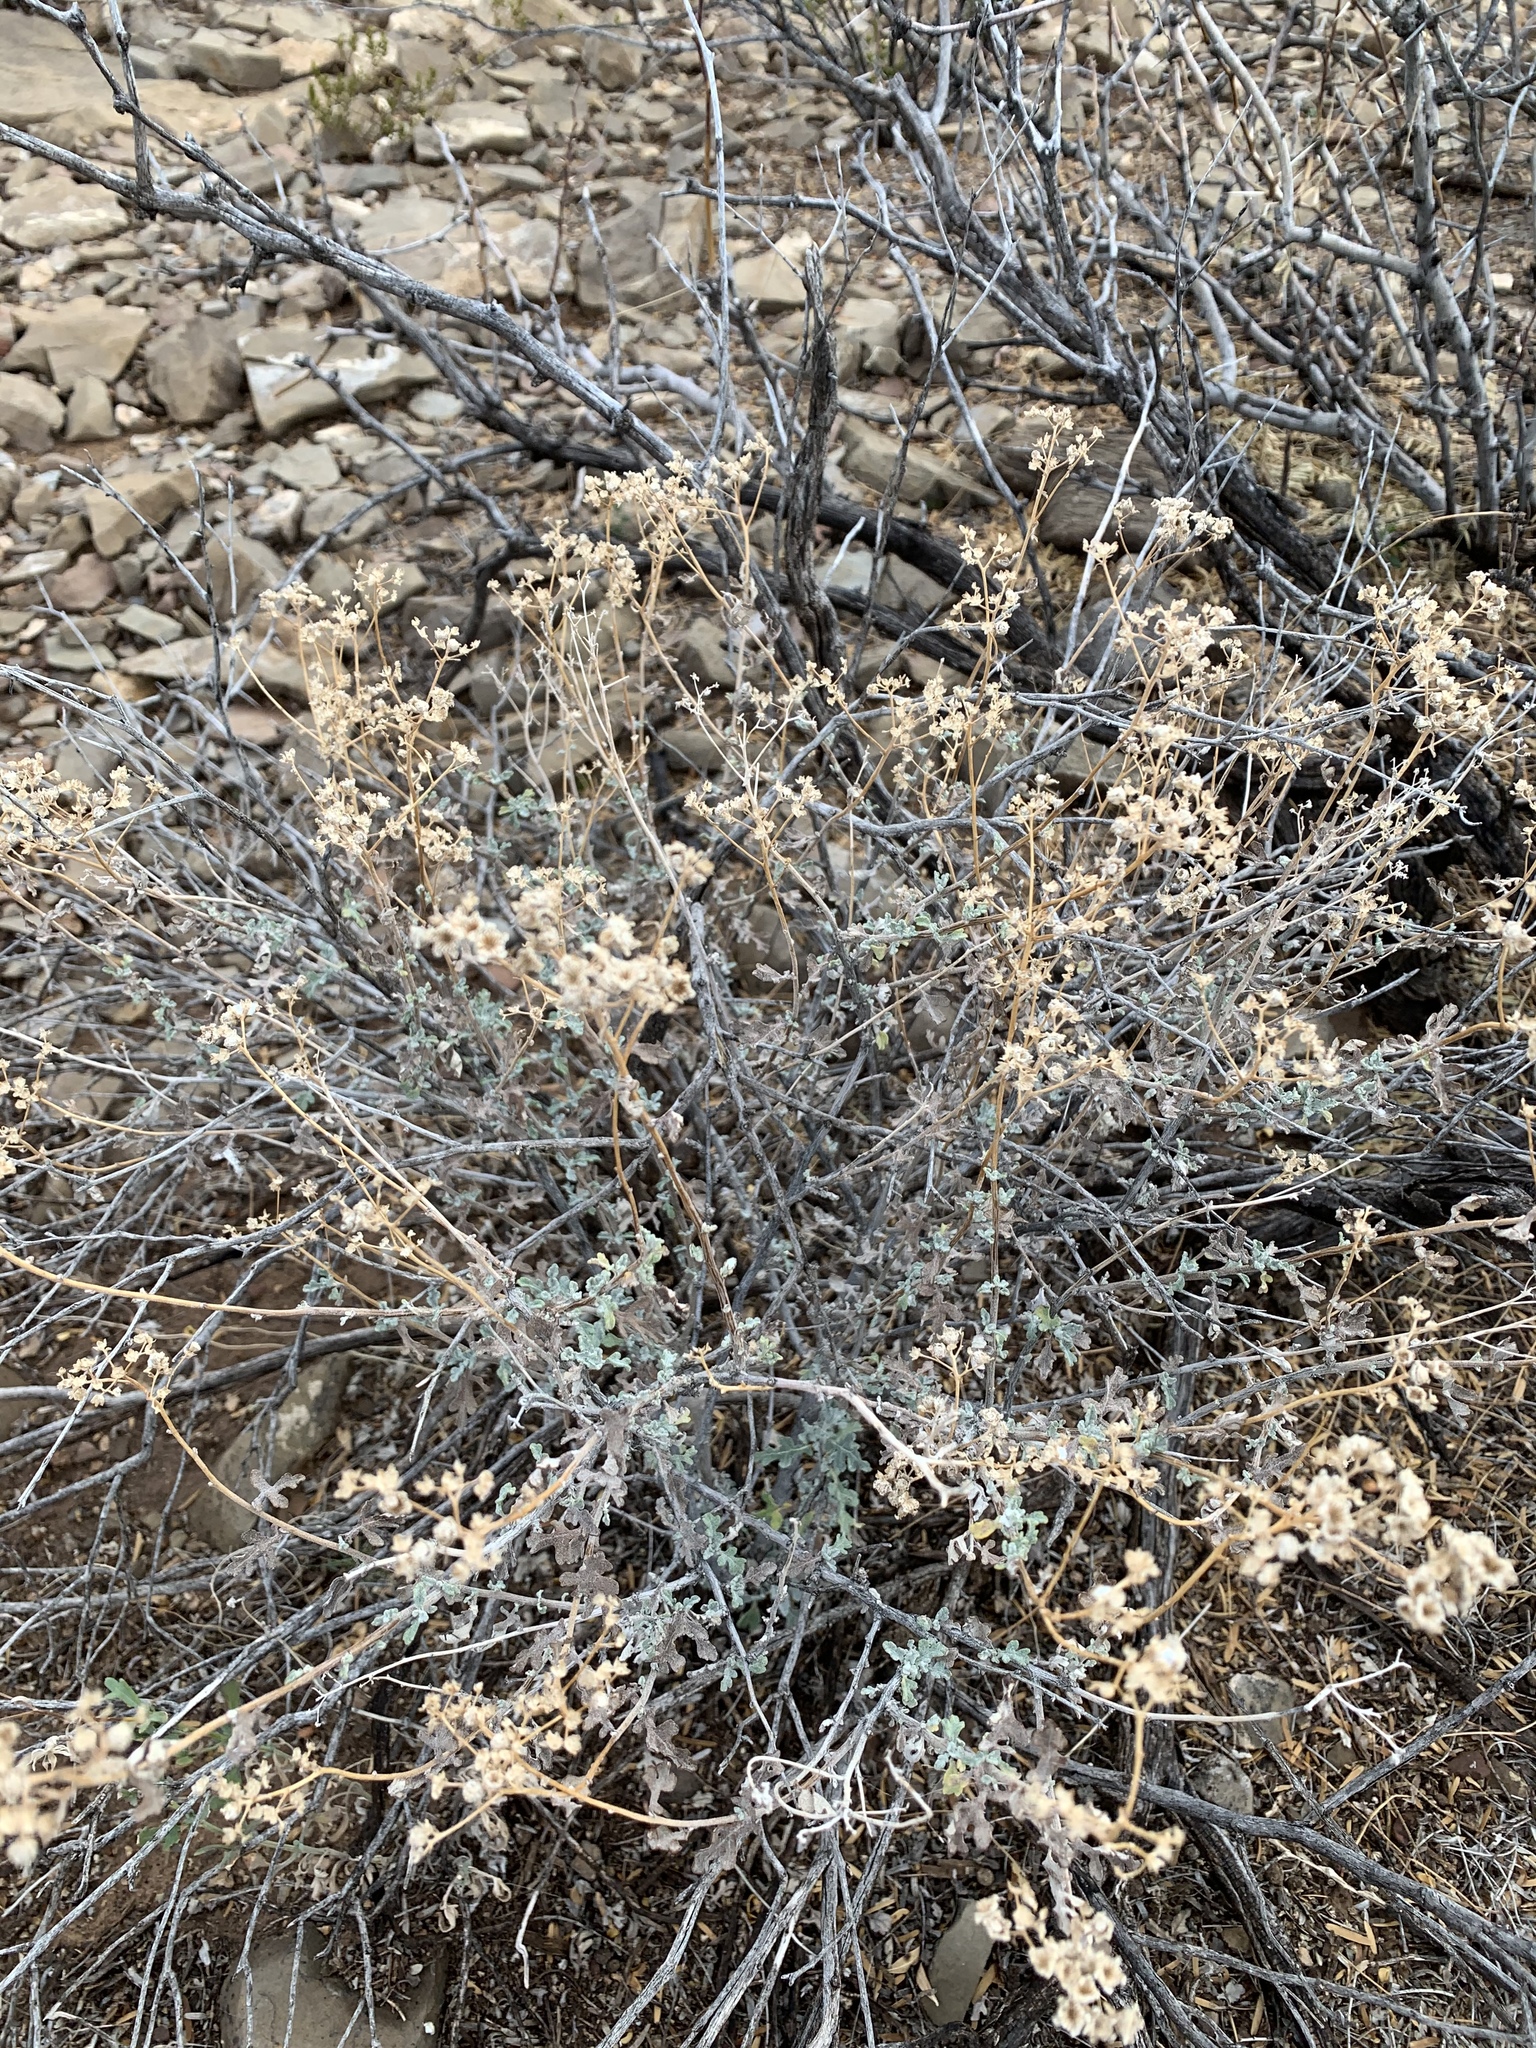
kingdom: Plantae
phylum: Tracheophyta
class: Magnoliopsida
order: Asterales
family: Asteraceae
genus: Parthenium
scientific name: Parthenium incanum
